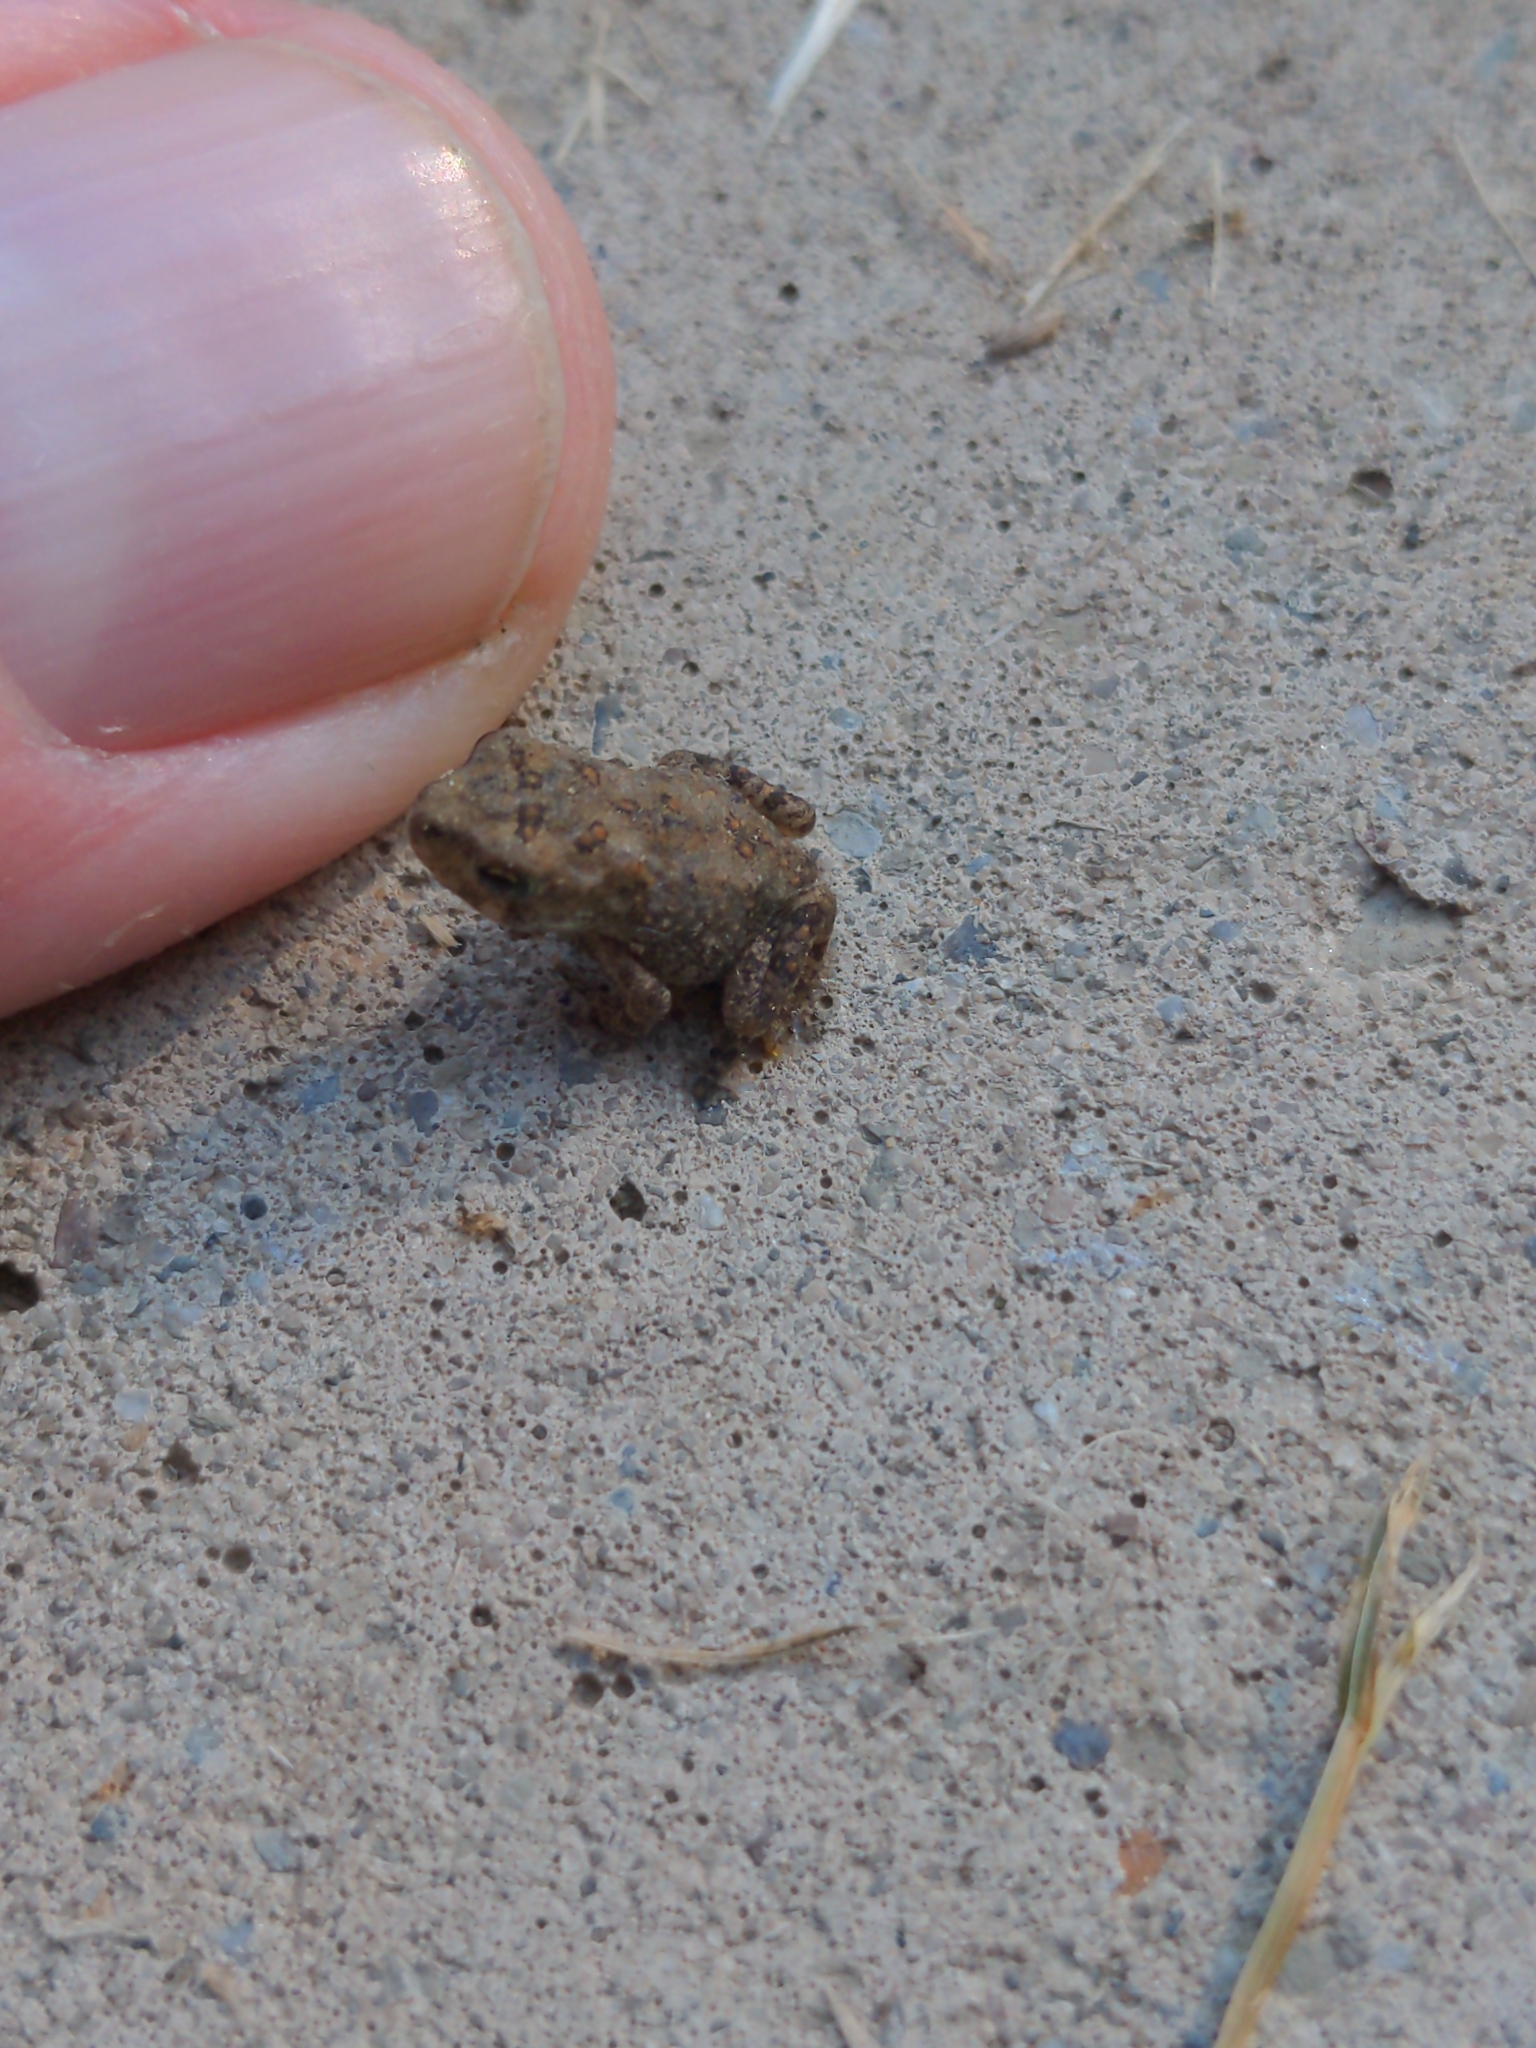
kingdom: Animalia
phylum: Chordata
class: Amphibia
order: Anura
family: Bufonidae
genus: Anaxyrus
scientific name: Anaxyrus americanus
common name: American toad
